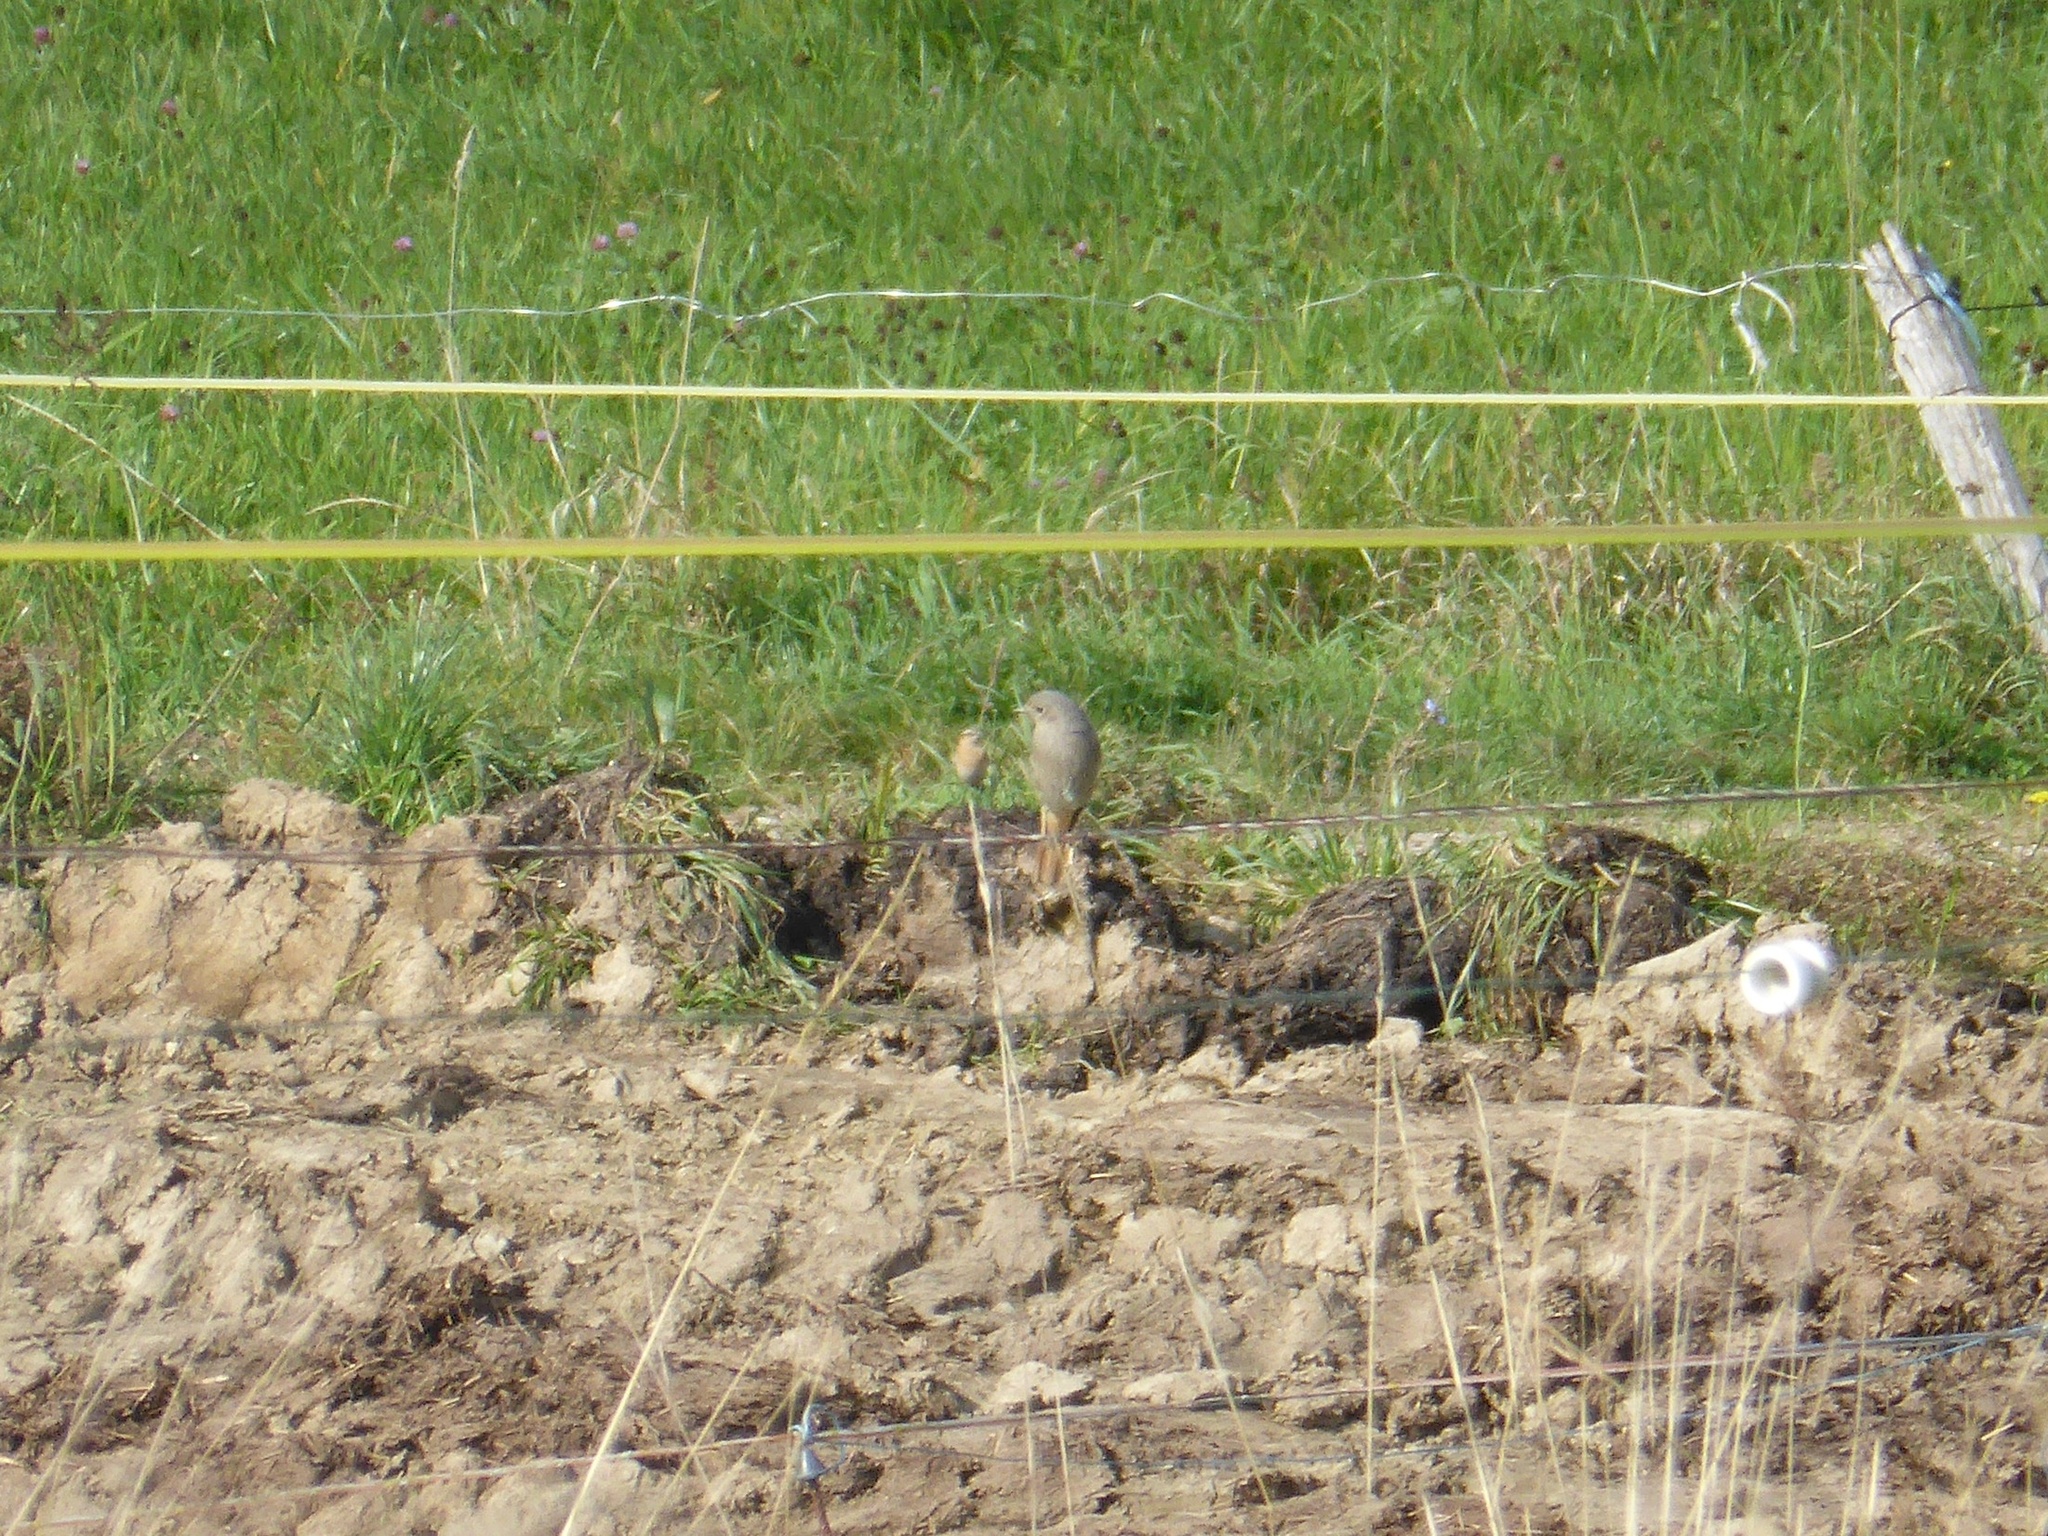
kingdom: Animalia
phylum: Chordata
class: Aves
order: Passeriformes
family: Muscicapidae
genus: Phoenicurus
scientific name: Phoenicurus ochruros
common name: Black redstart
